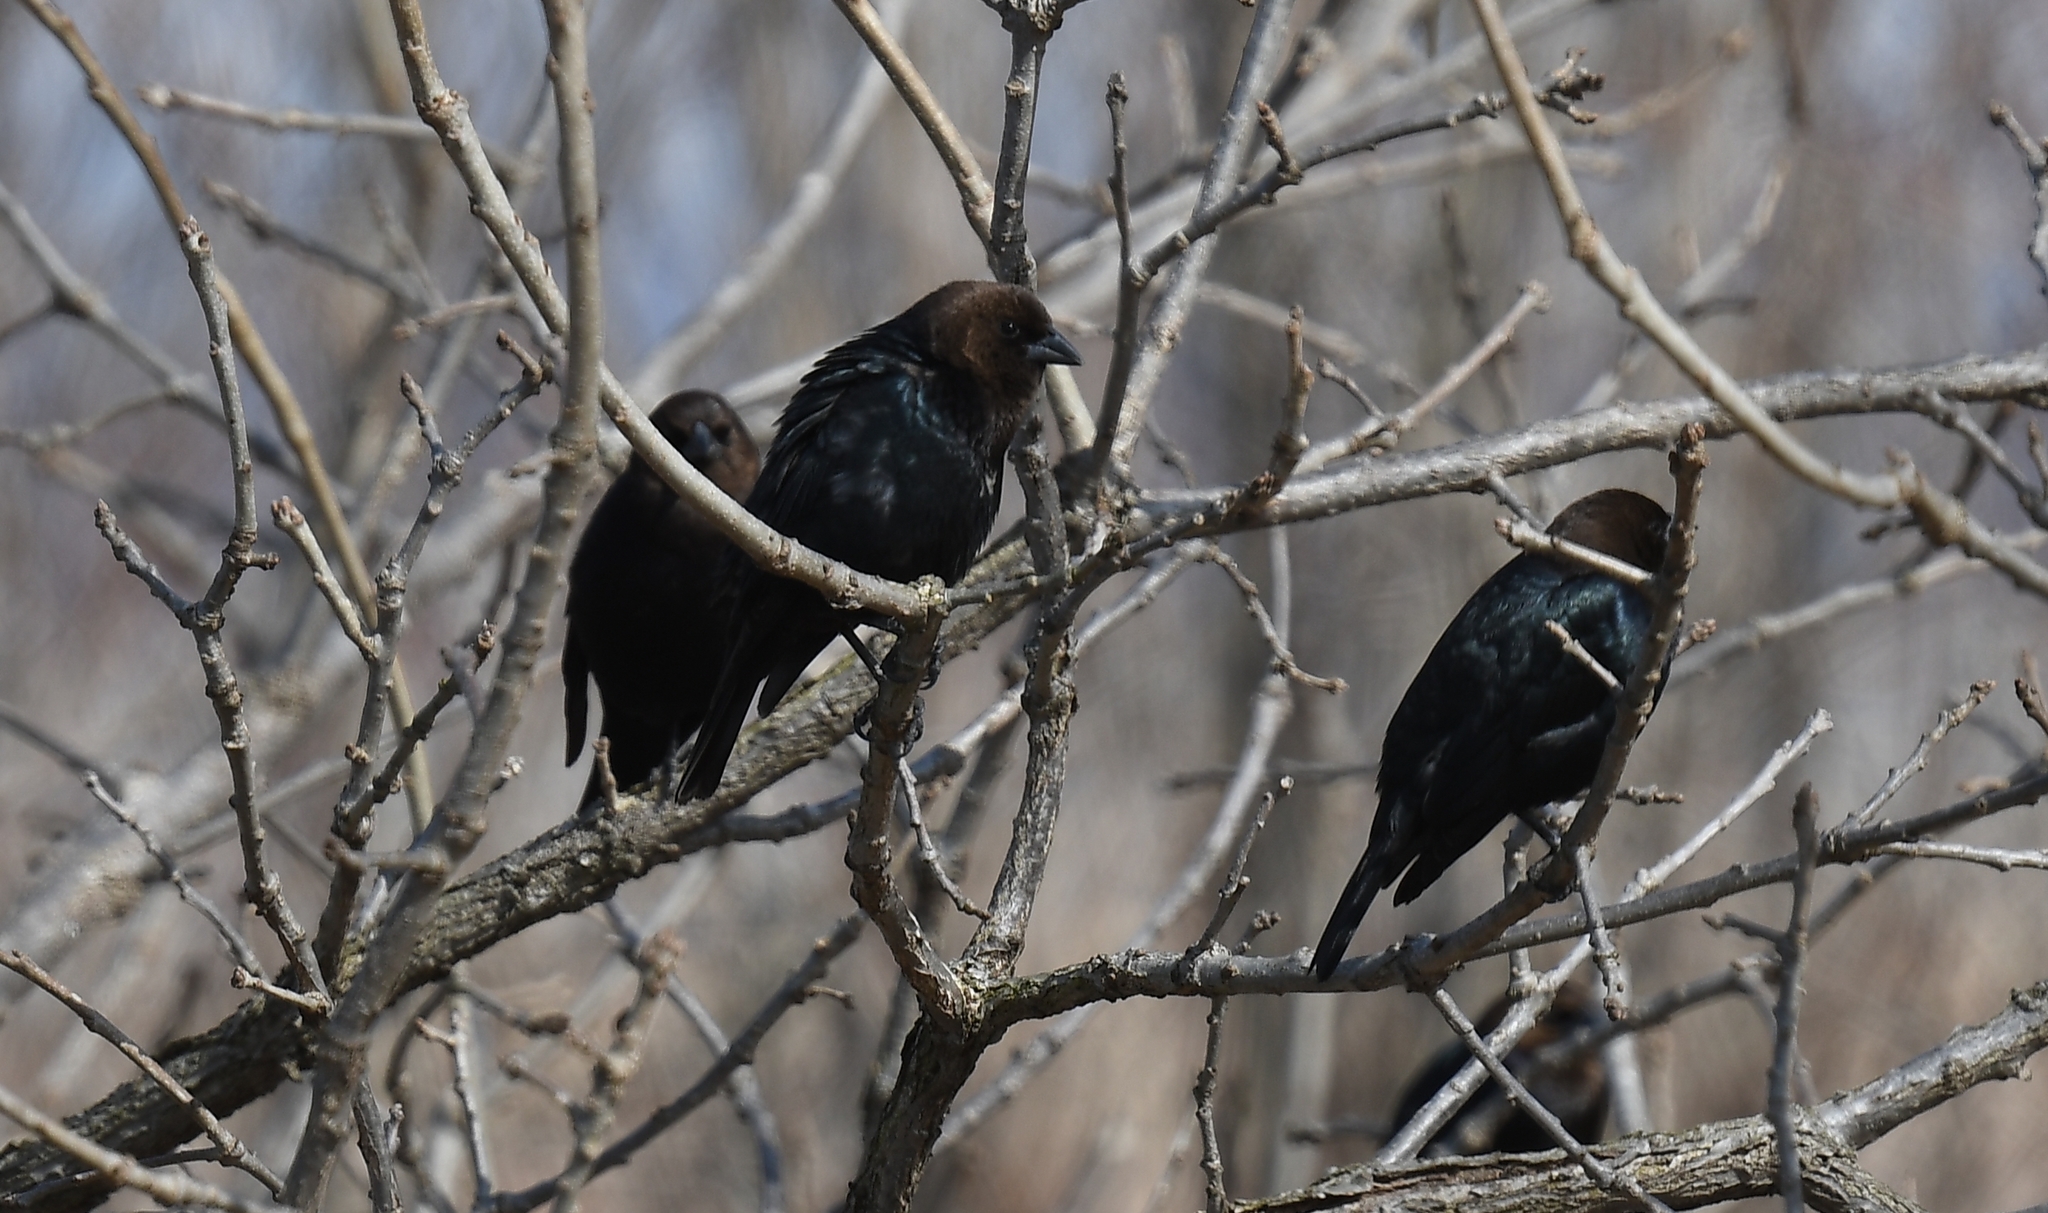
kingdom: Animalia
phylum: Chordata
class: Aves
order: Passeriformes
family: Icteridae
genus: Molothrus
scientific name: Molothrus ater
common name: Brown-headed cowbird
